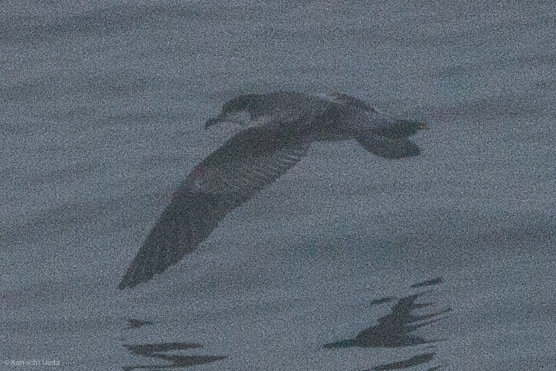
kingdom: Animalia
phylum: Chordata
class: Aves
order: Procellariiformes
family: Procellariidae
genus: Puffinus
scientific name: Puffinus bulleri
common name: Buller's shearwater
